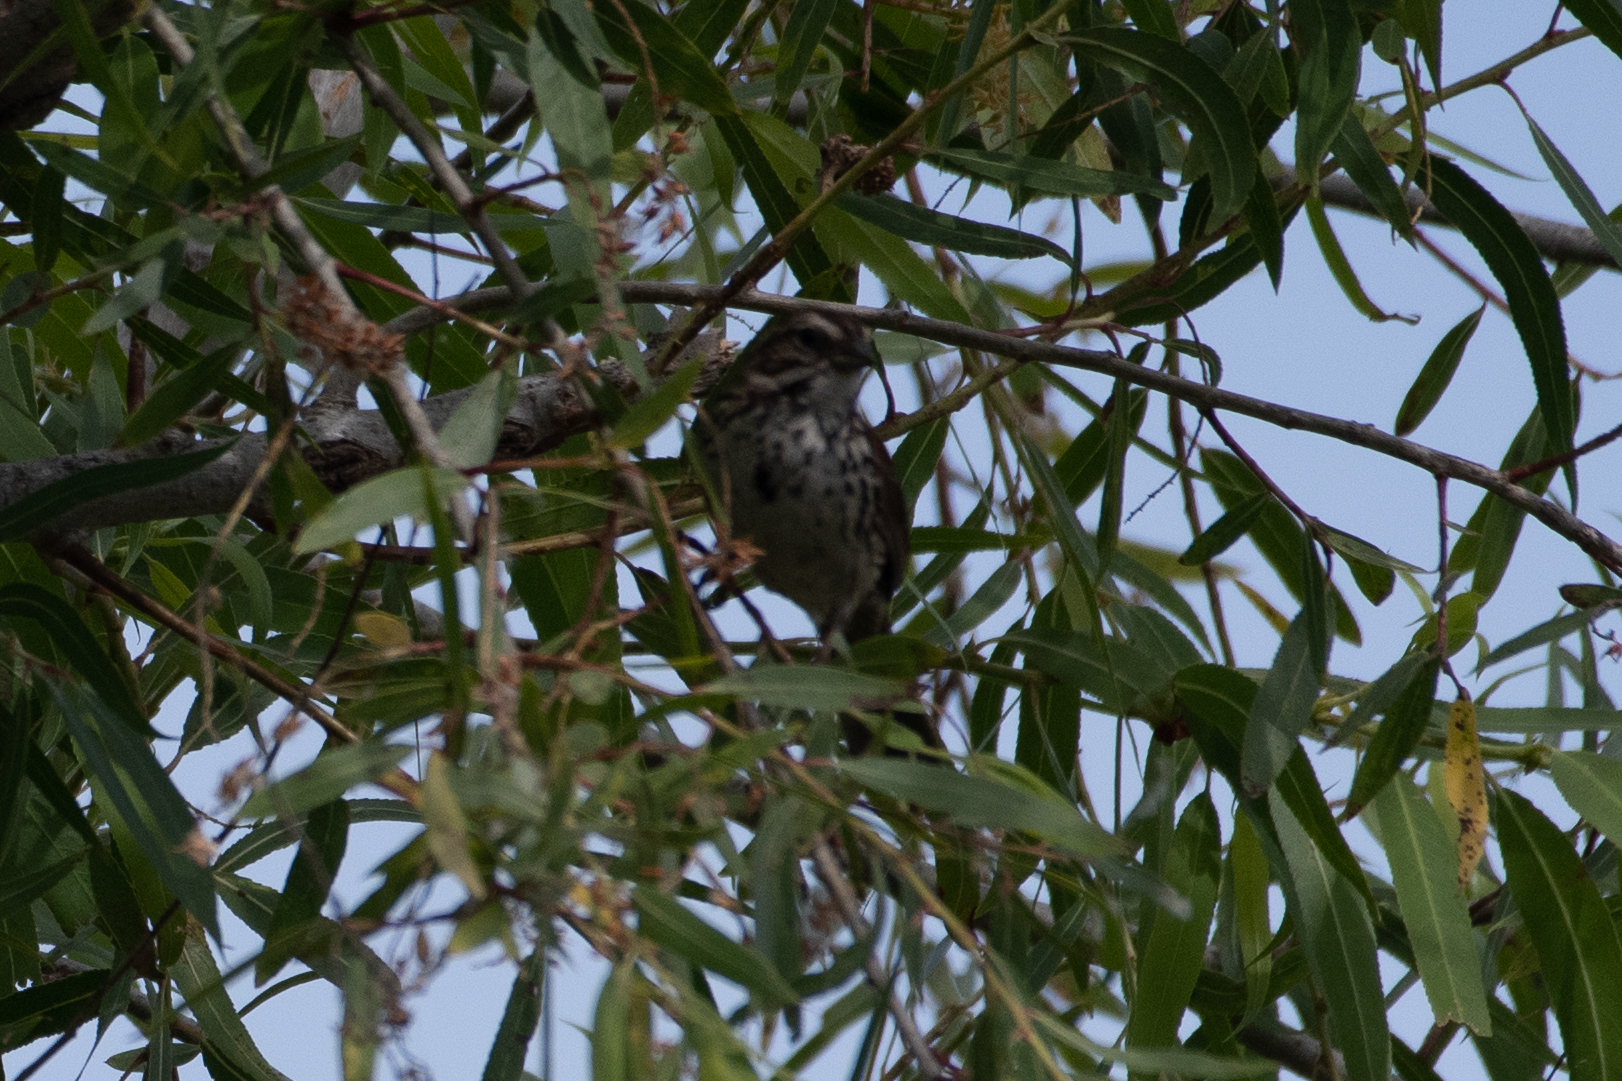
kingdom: Animalia
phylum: Chordata
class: Aves
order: Passeriformes
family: Passerellidae
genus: Melospiza
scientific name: Melospiza melodia
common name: Song sparrow
